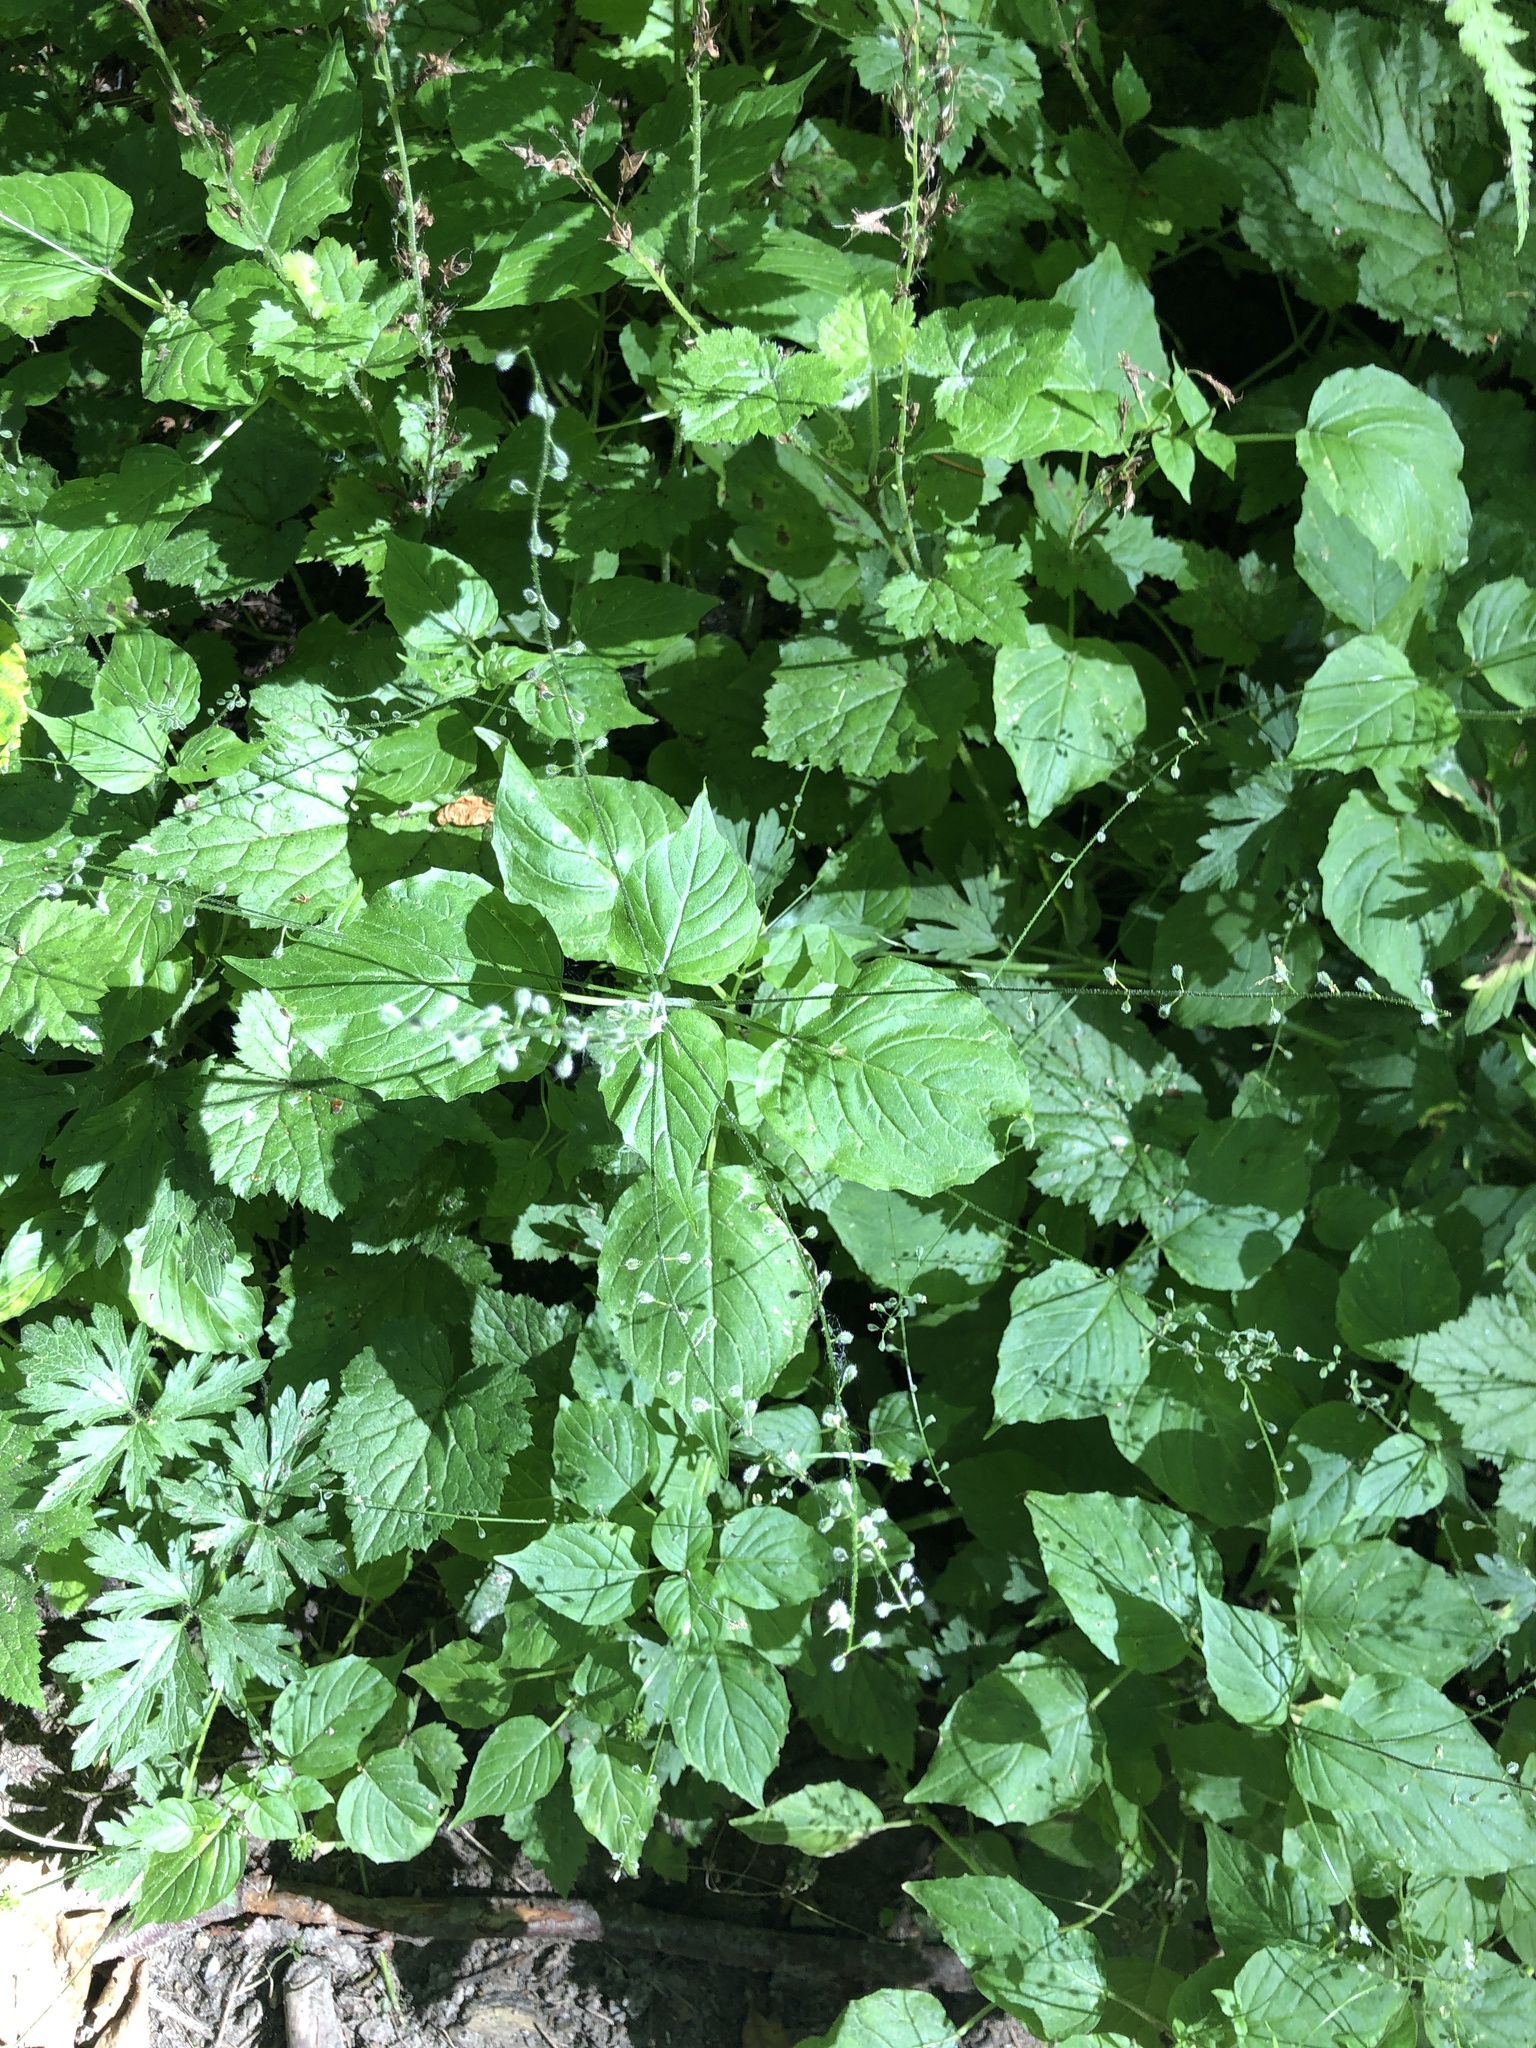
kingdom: Plantae
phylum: Tracheophyta
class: Magnoliopsida
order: Myrtales
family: Onagraceae
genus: Circaea
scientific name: Circaea alpina
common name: Alpine enchanter's-nightshade
